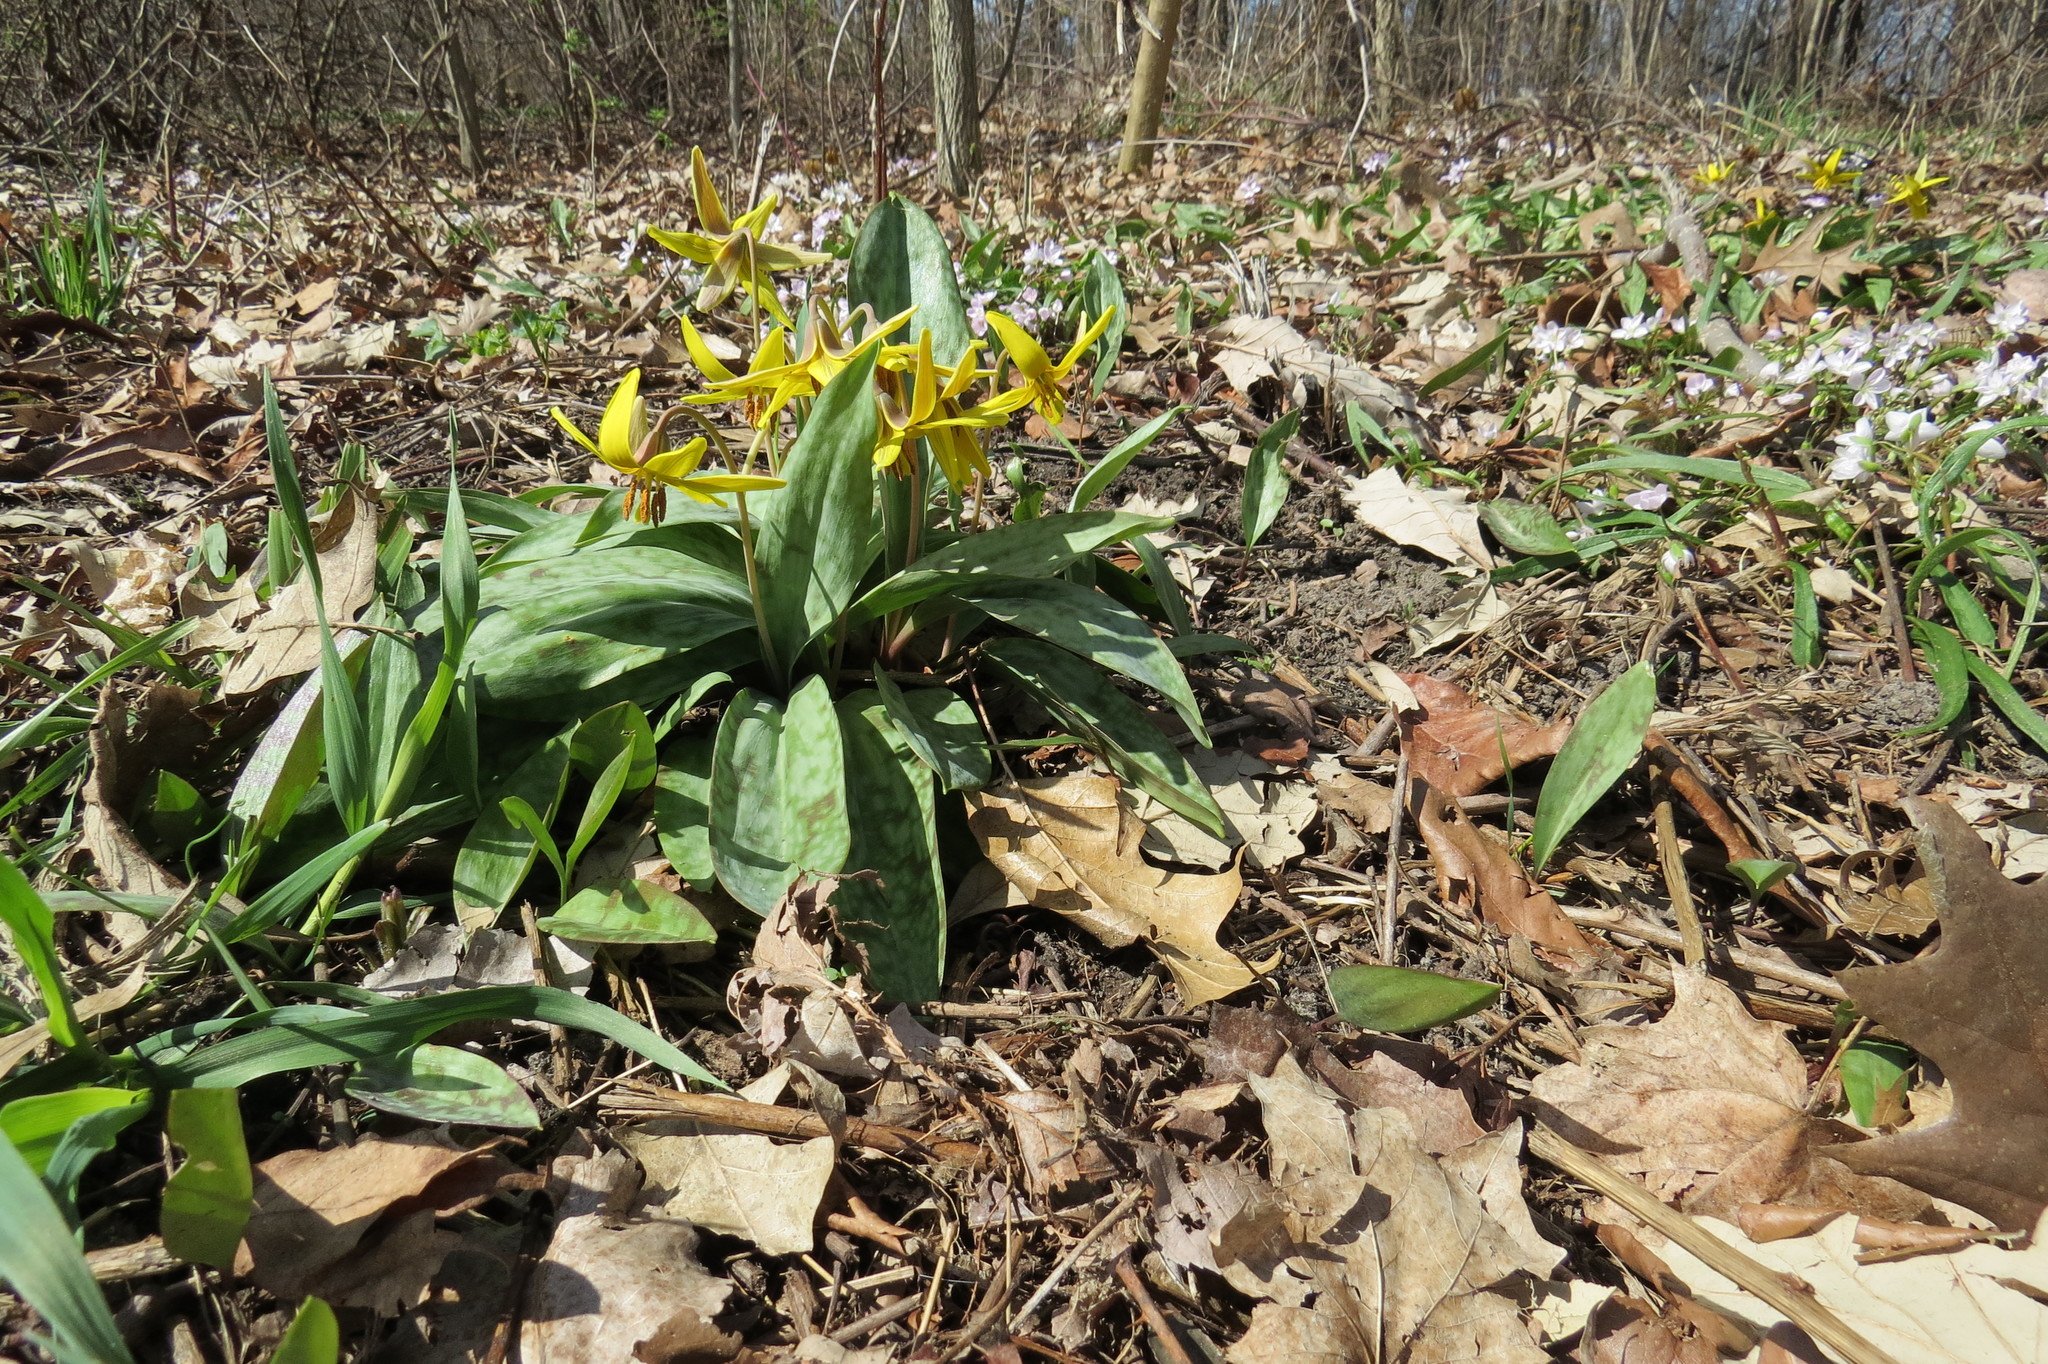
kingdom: Plantae
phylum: Tracheophyta
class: Liliopsida
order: Liliales
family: Liliaceae
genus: Erythronium
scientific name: Erythronium americanum
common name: Yellow adder's-tongue
